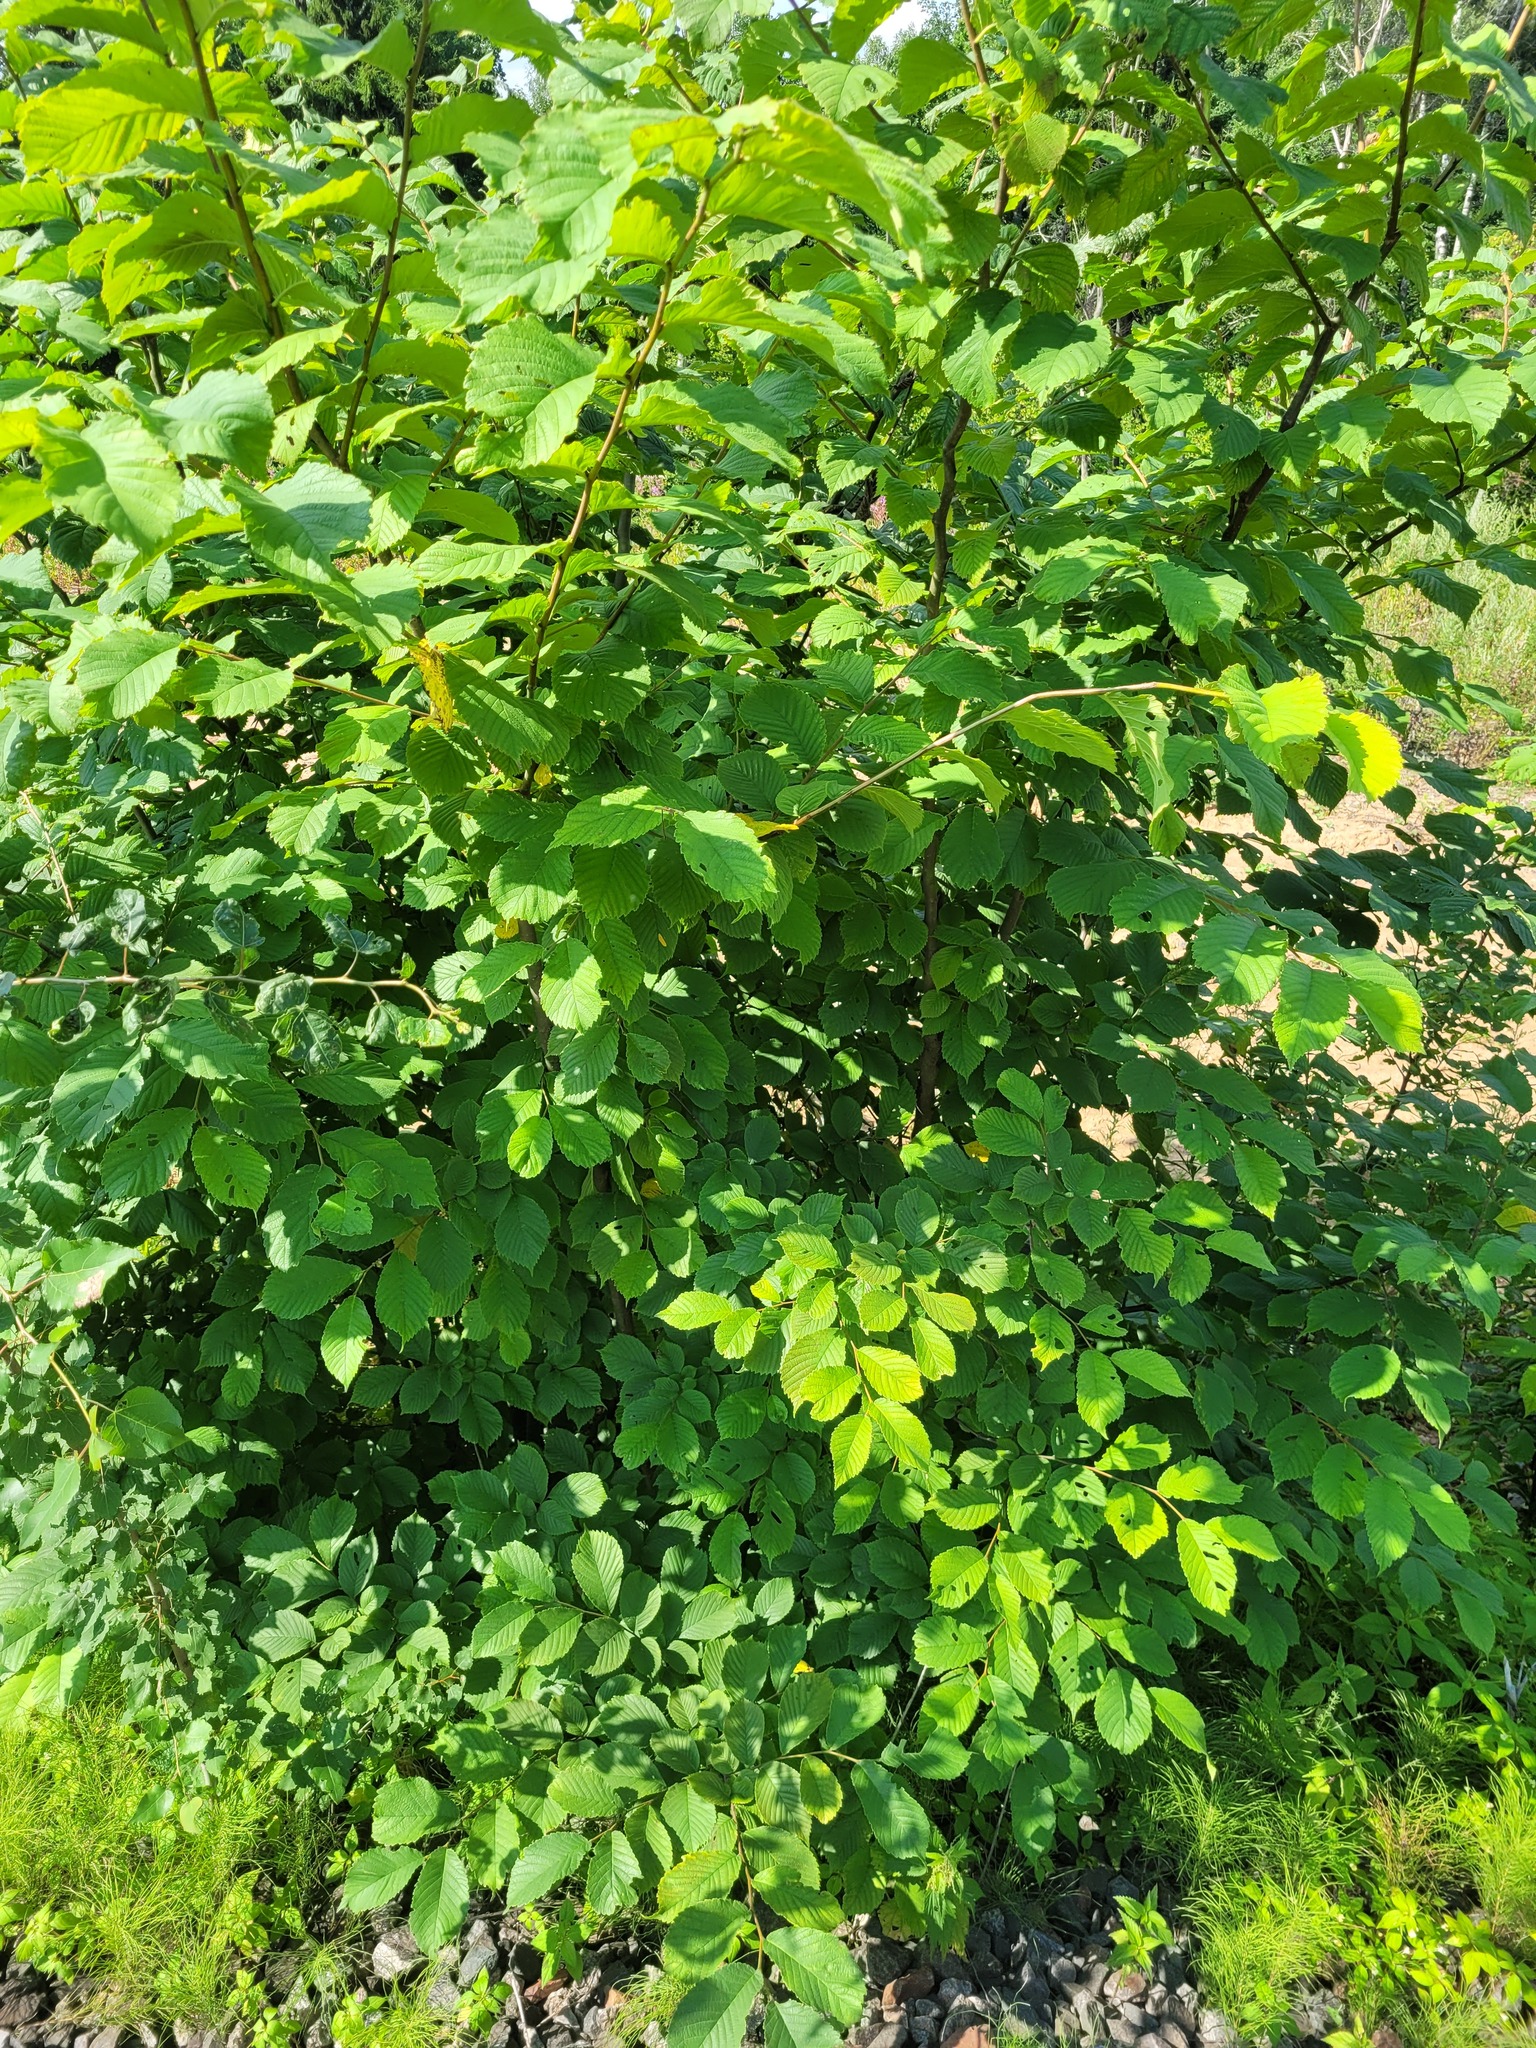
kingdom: Plantae
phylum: Tracheophyta
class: Magnoliopsida
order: Rosales
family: Ulmaceae
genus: Ulmus
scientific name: Ulmus glabra
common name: Wych elm
